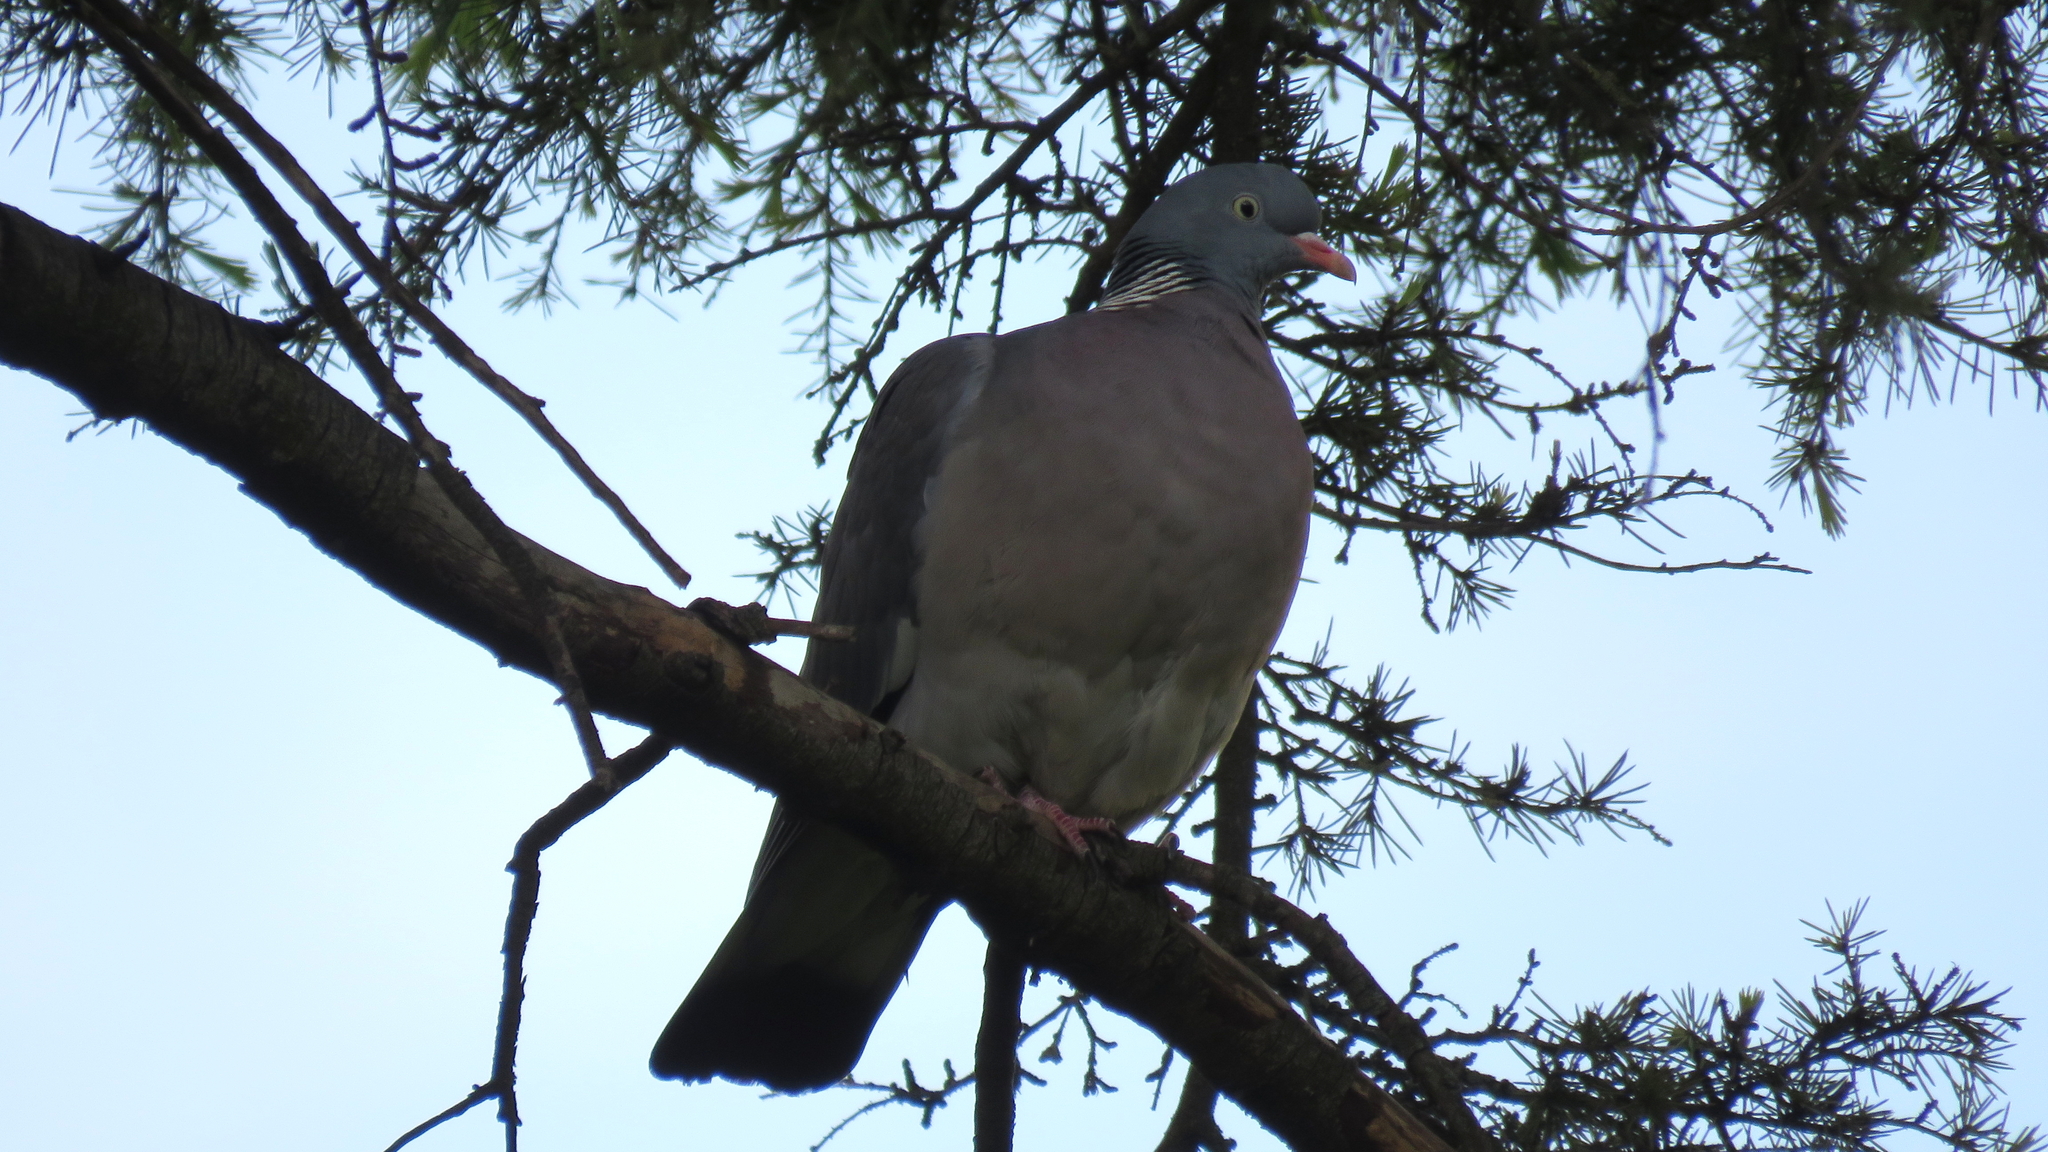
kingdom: Animalia
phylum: Chordata
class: Aves
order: Columbiformes
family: Columbidae
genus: Columba
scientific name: Columba palumbus
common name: Common wood pigeon
